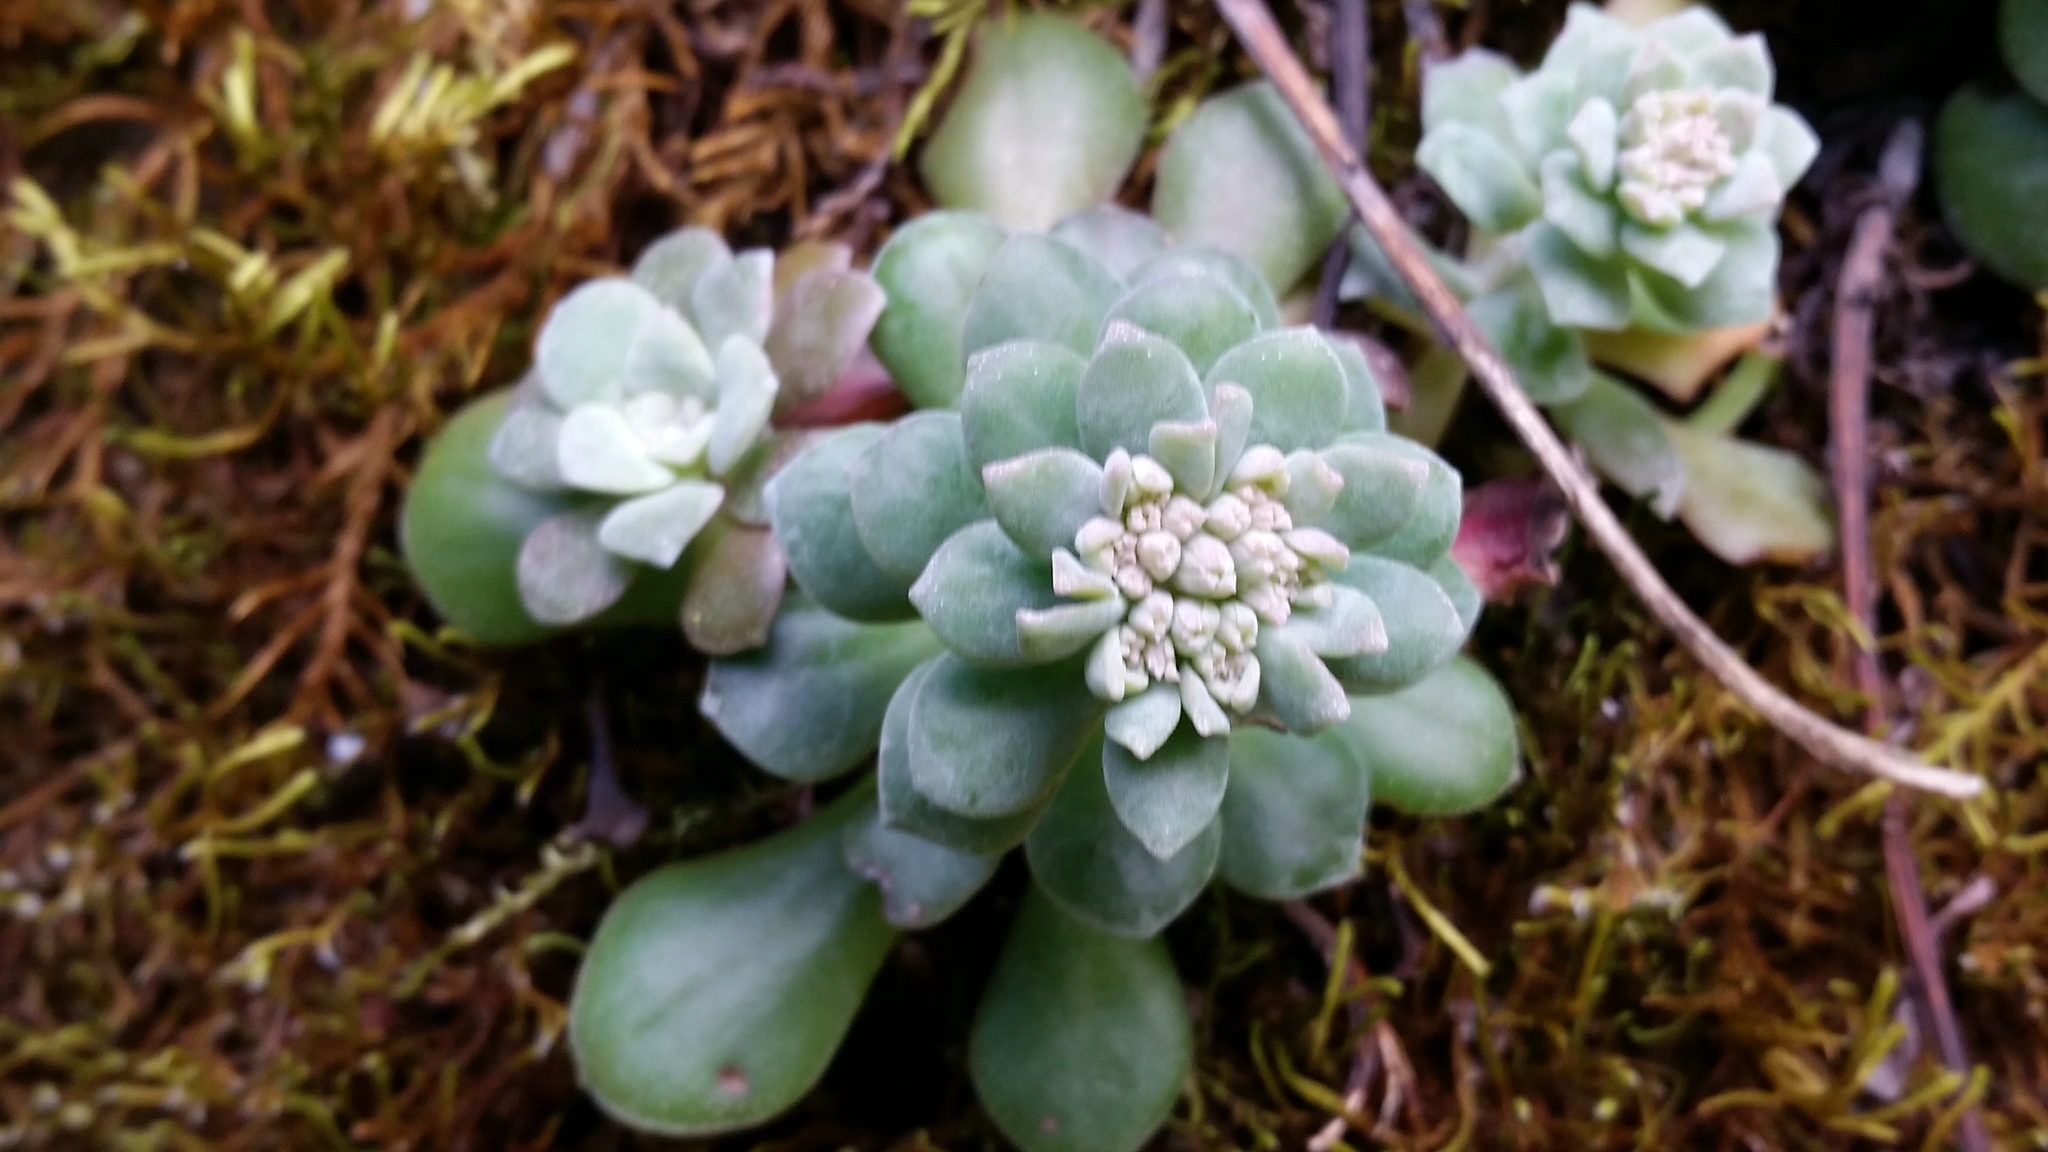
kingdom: Plantae
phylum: Tracheophyta
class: Magnoliopsida
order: Saxifragales
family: Crassulaceae
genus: Sedum
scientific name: Sedum spathulifolium
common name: Colorado stonecrop
